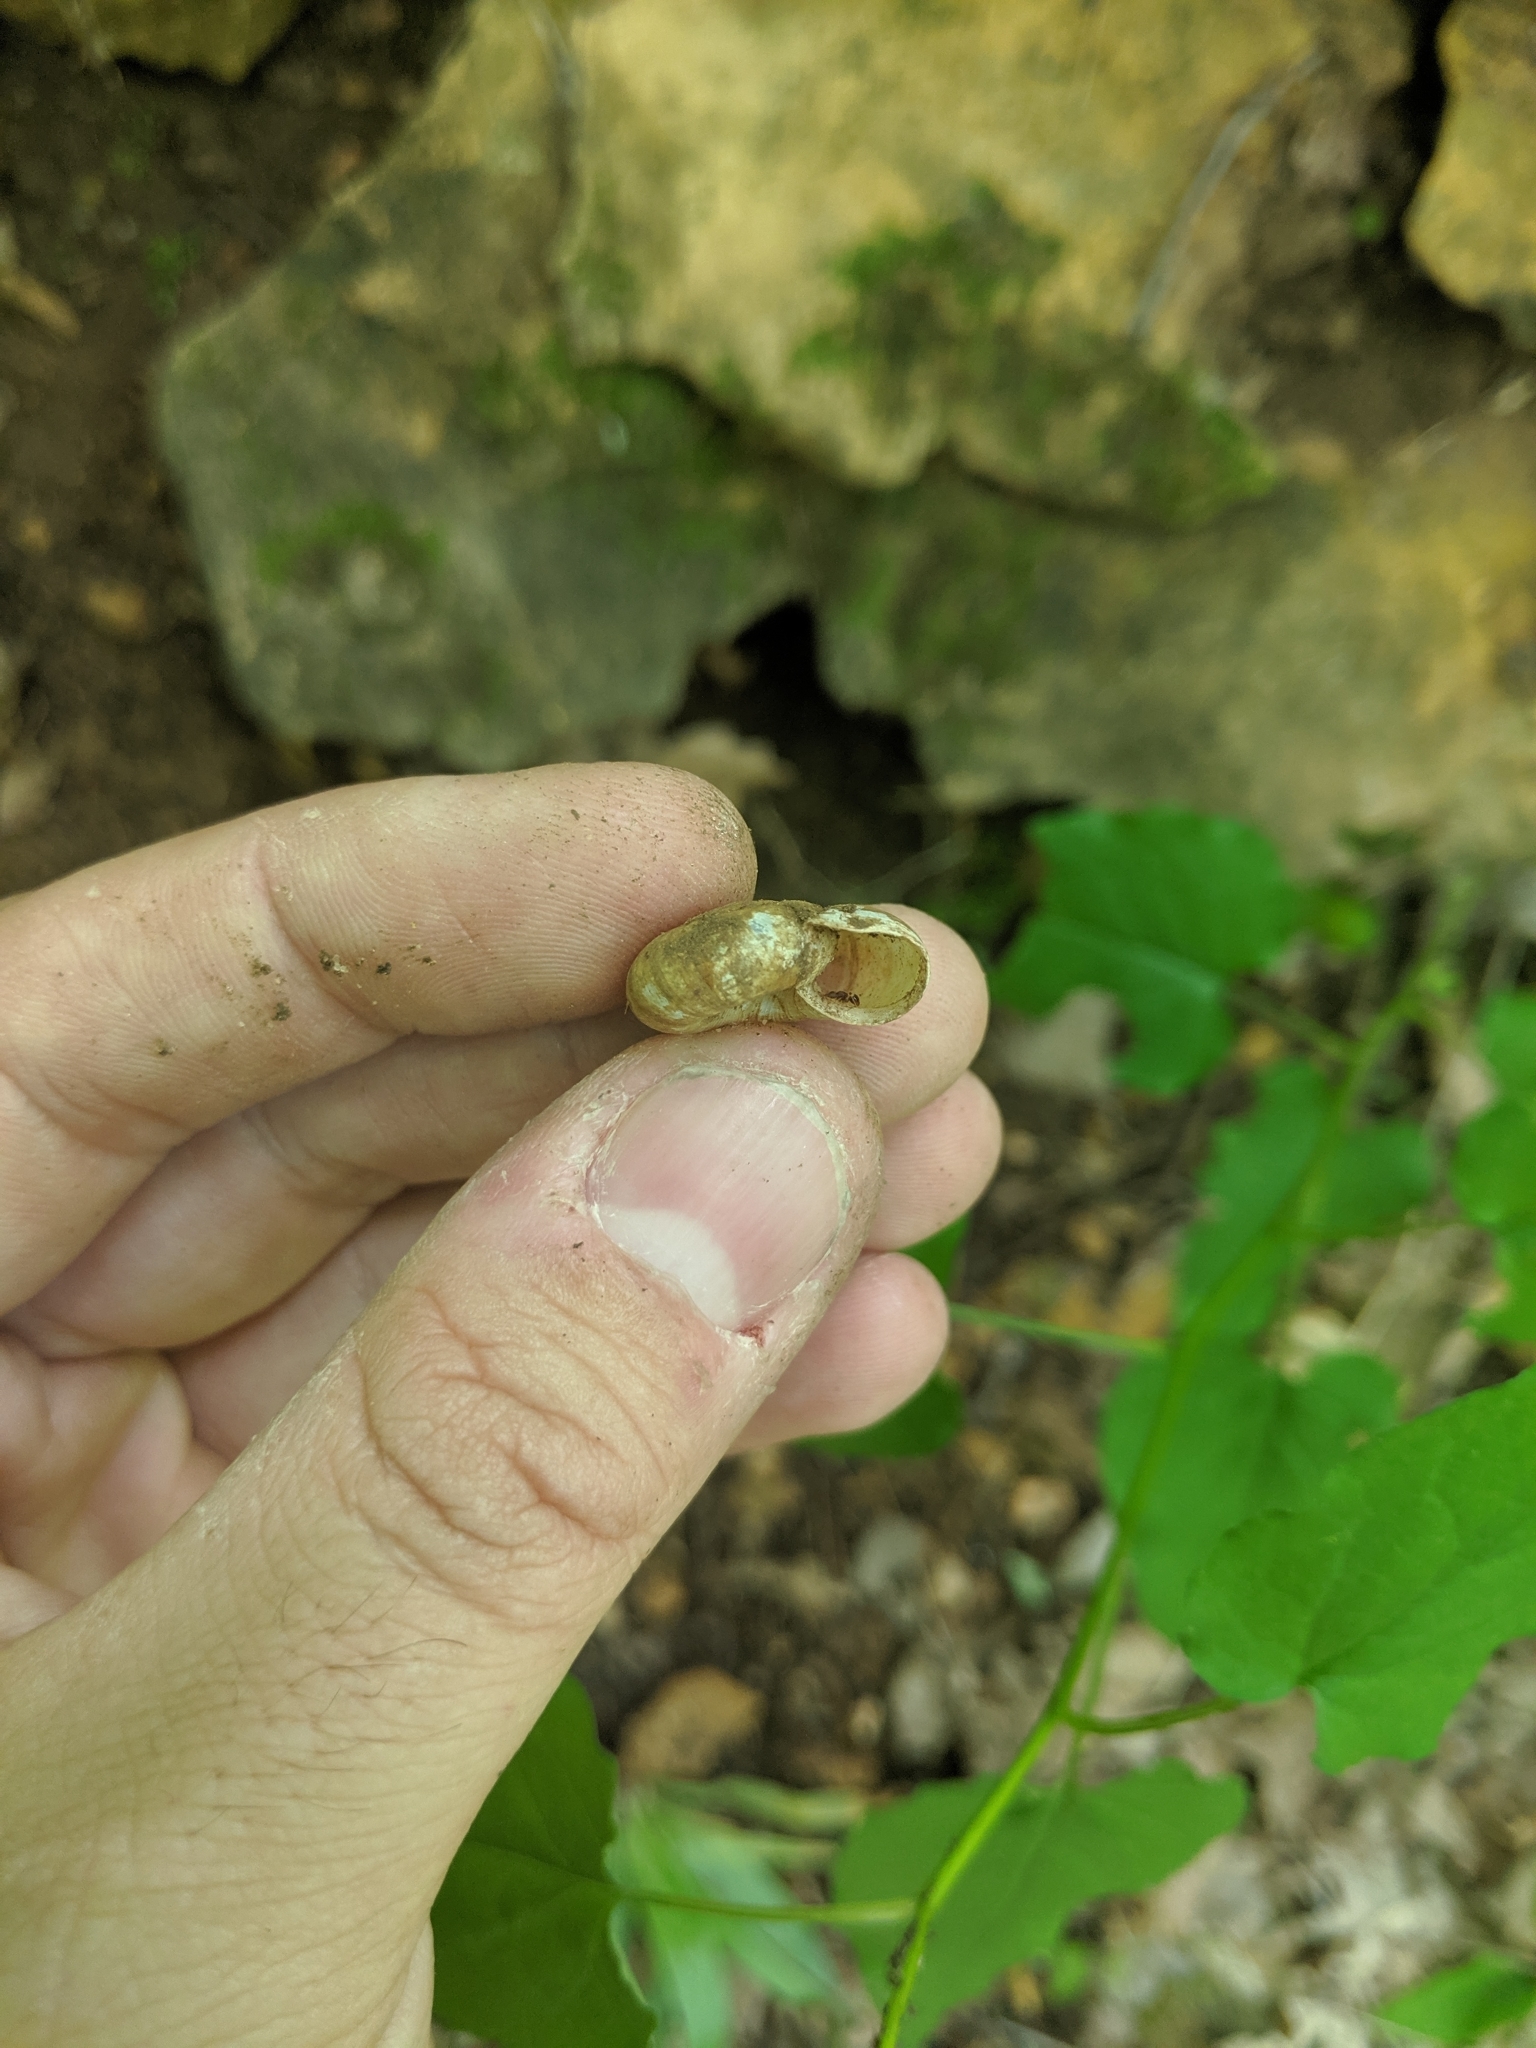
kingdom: Animalia
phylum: Mollusca
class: Gastropoda
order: Stylommatophora
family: Haplotrematidae
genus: Haplotrema
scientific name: Haplotrema concavum
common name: Gray-foot lancetooth
